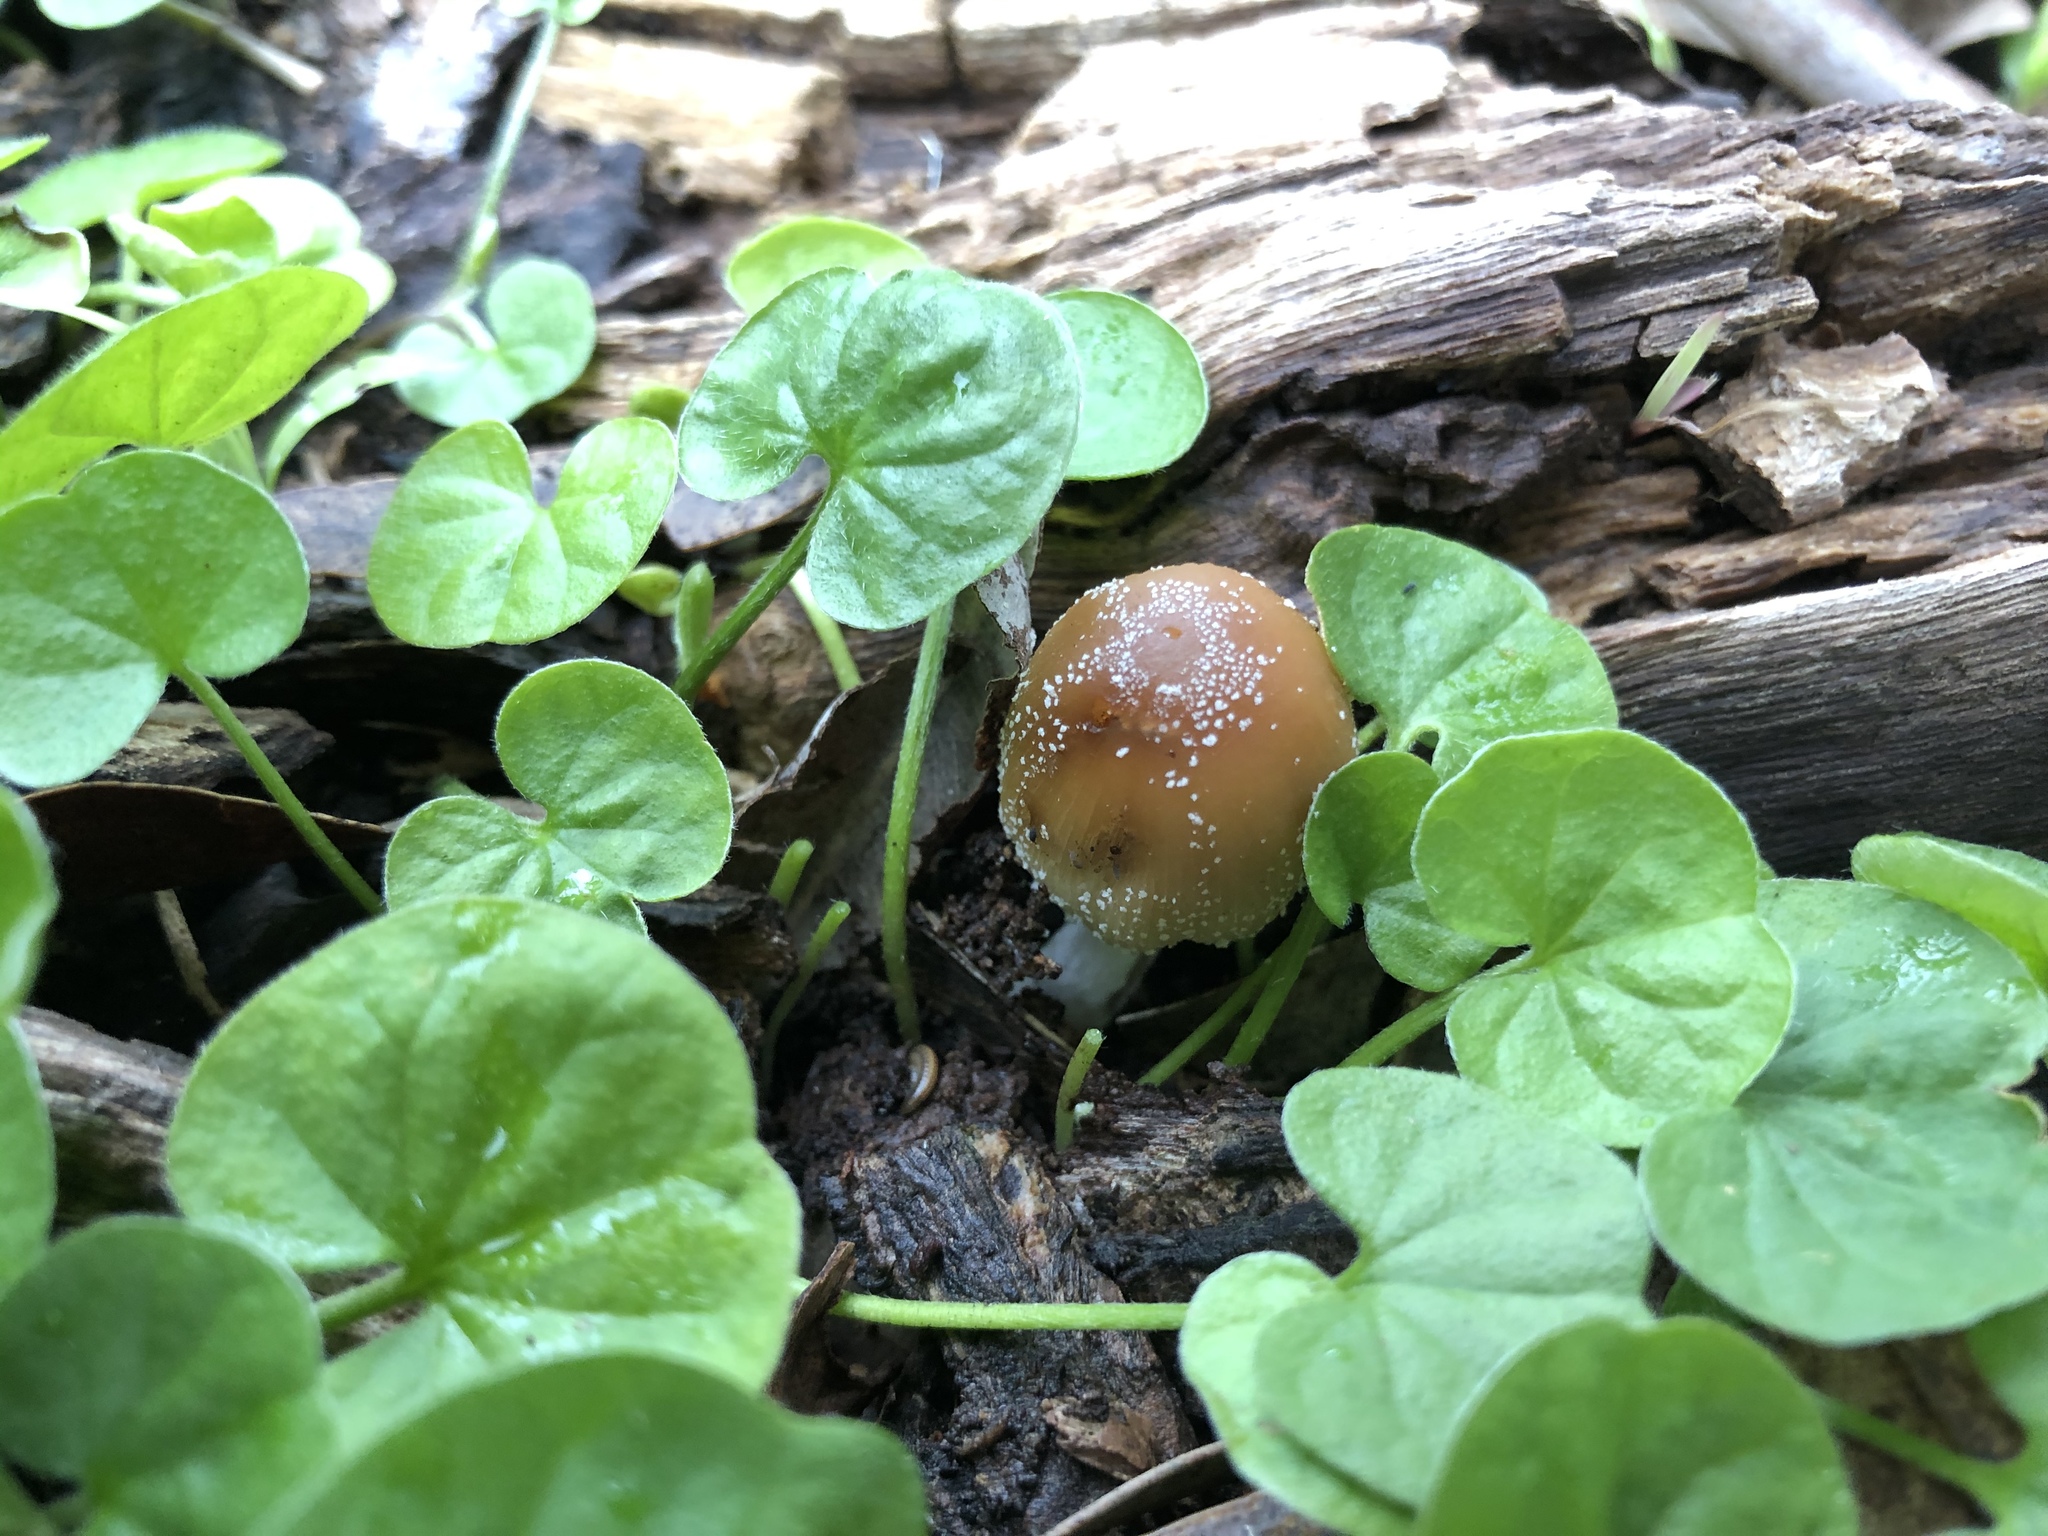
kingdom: Fungi
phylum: Basidiomycota
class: Agaricomycetes
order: Agaricales
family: Psathyrellaceae
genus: Coprinellus
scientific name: Coprinellus micaceus
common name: Glistening ink-cap
